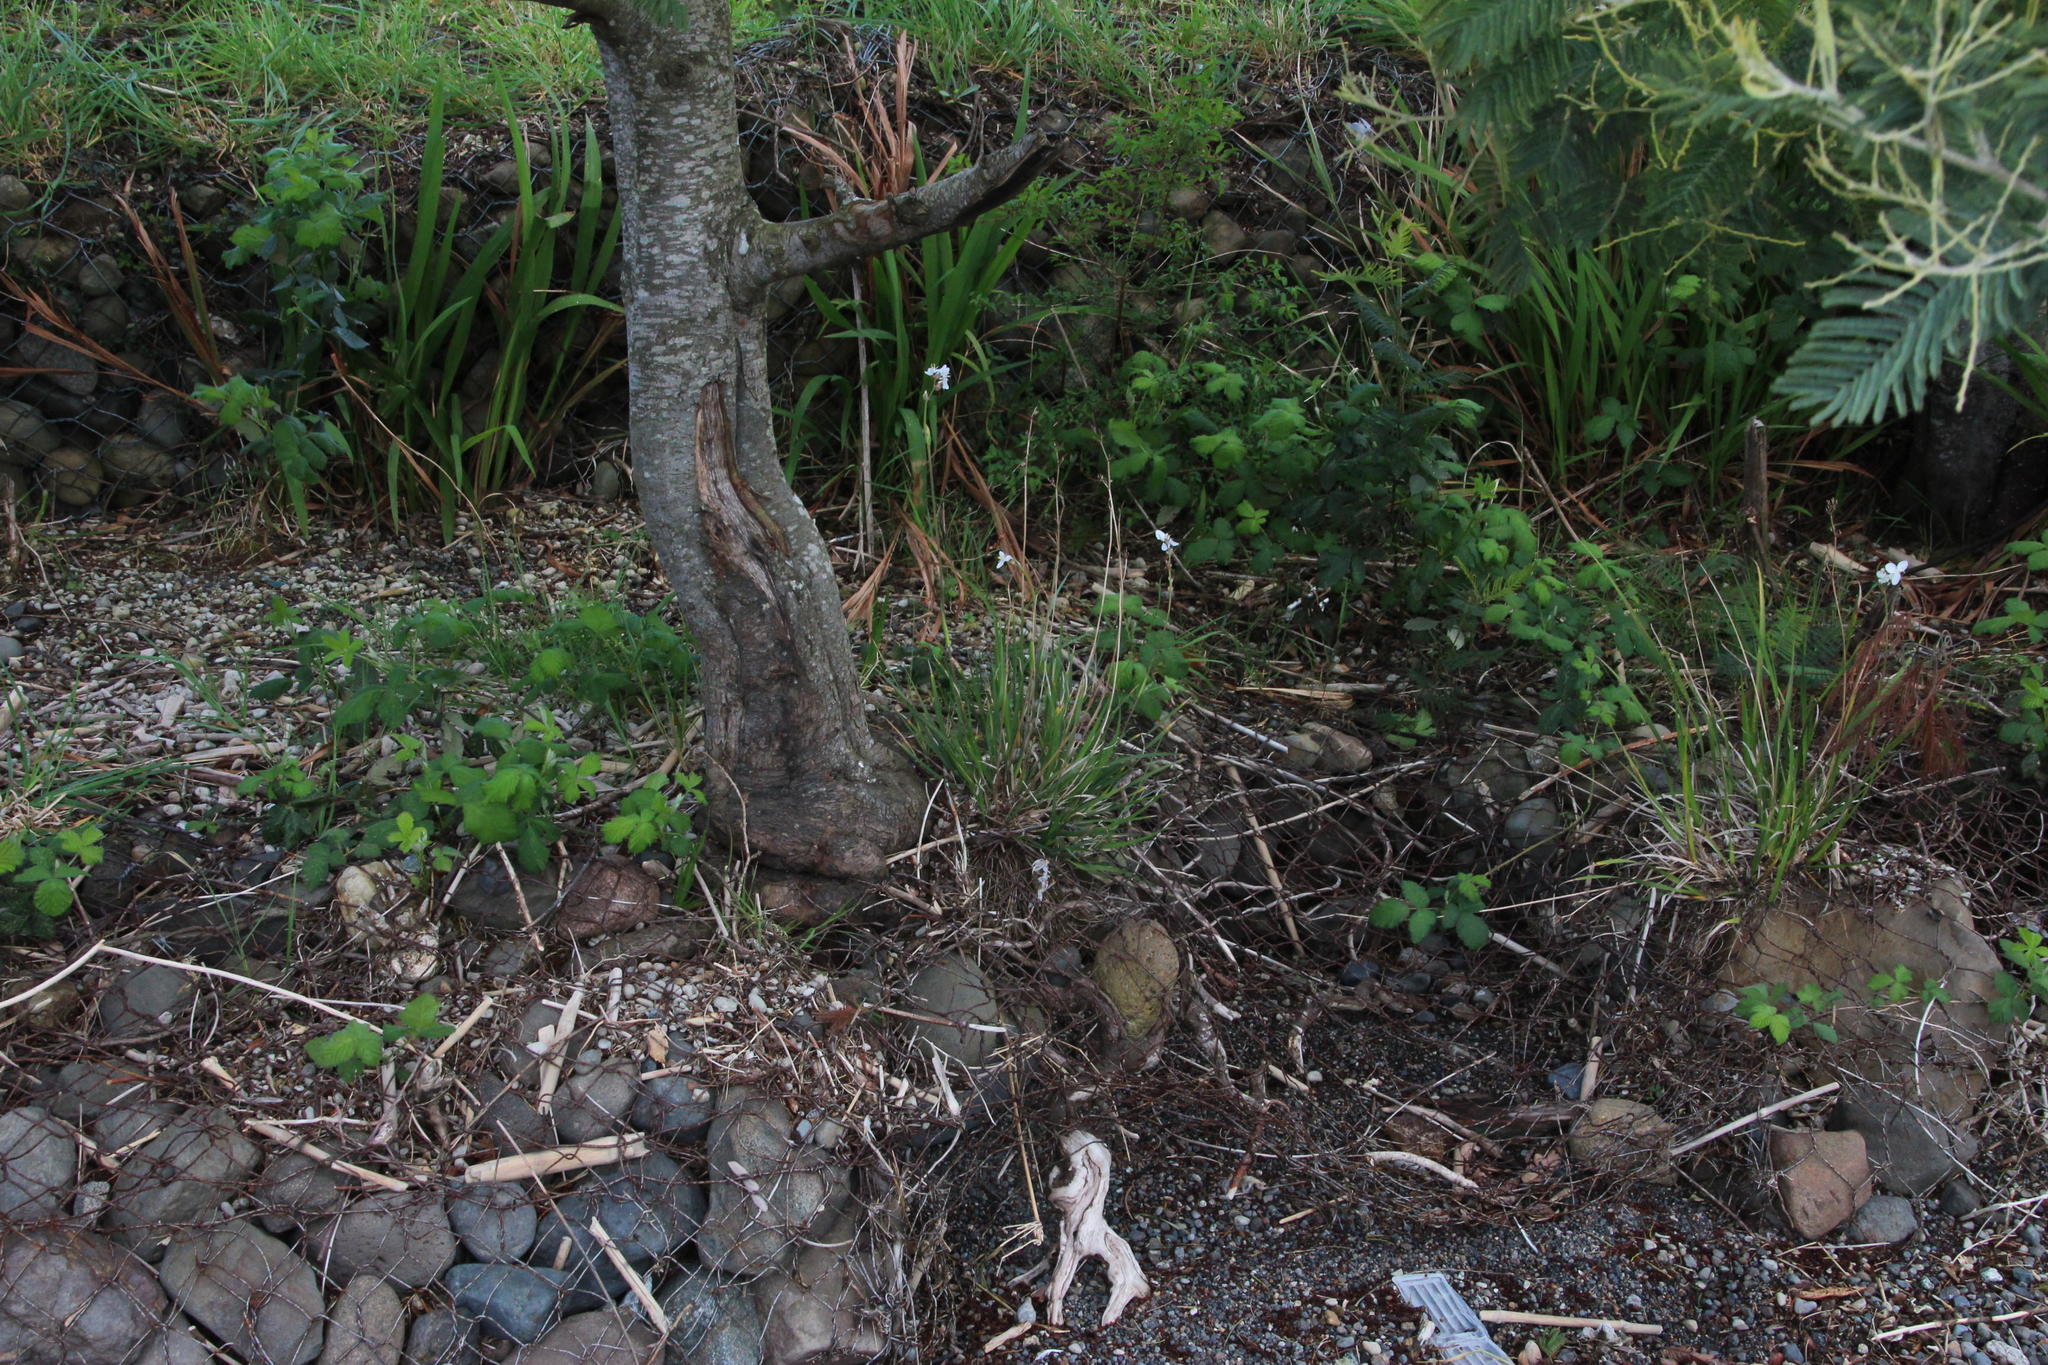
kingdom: Plantae
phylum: Tracheophyta
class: Liliopsida
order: Asparagales
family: Iridaceae
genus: Libertia
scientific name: Libertia chilensis
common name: Satin flower
